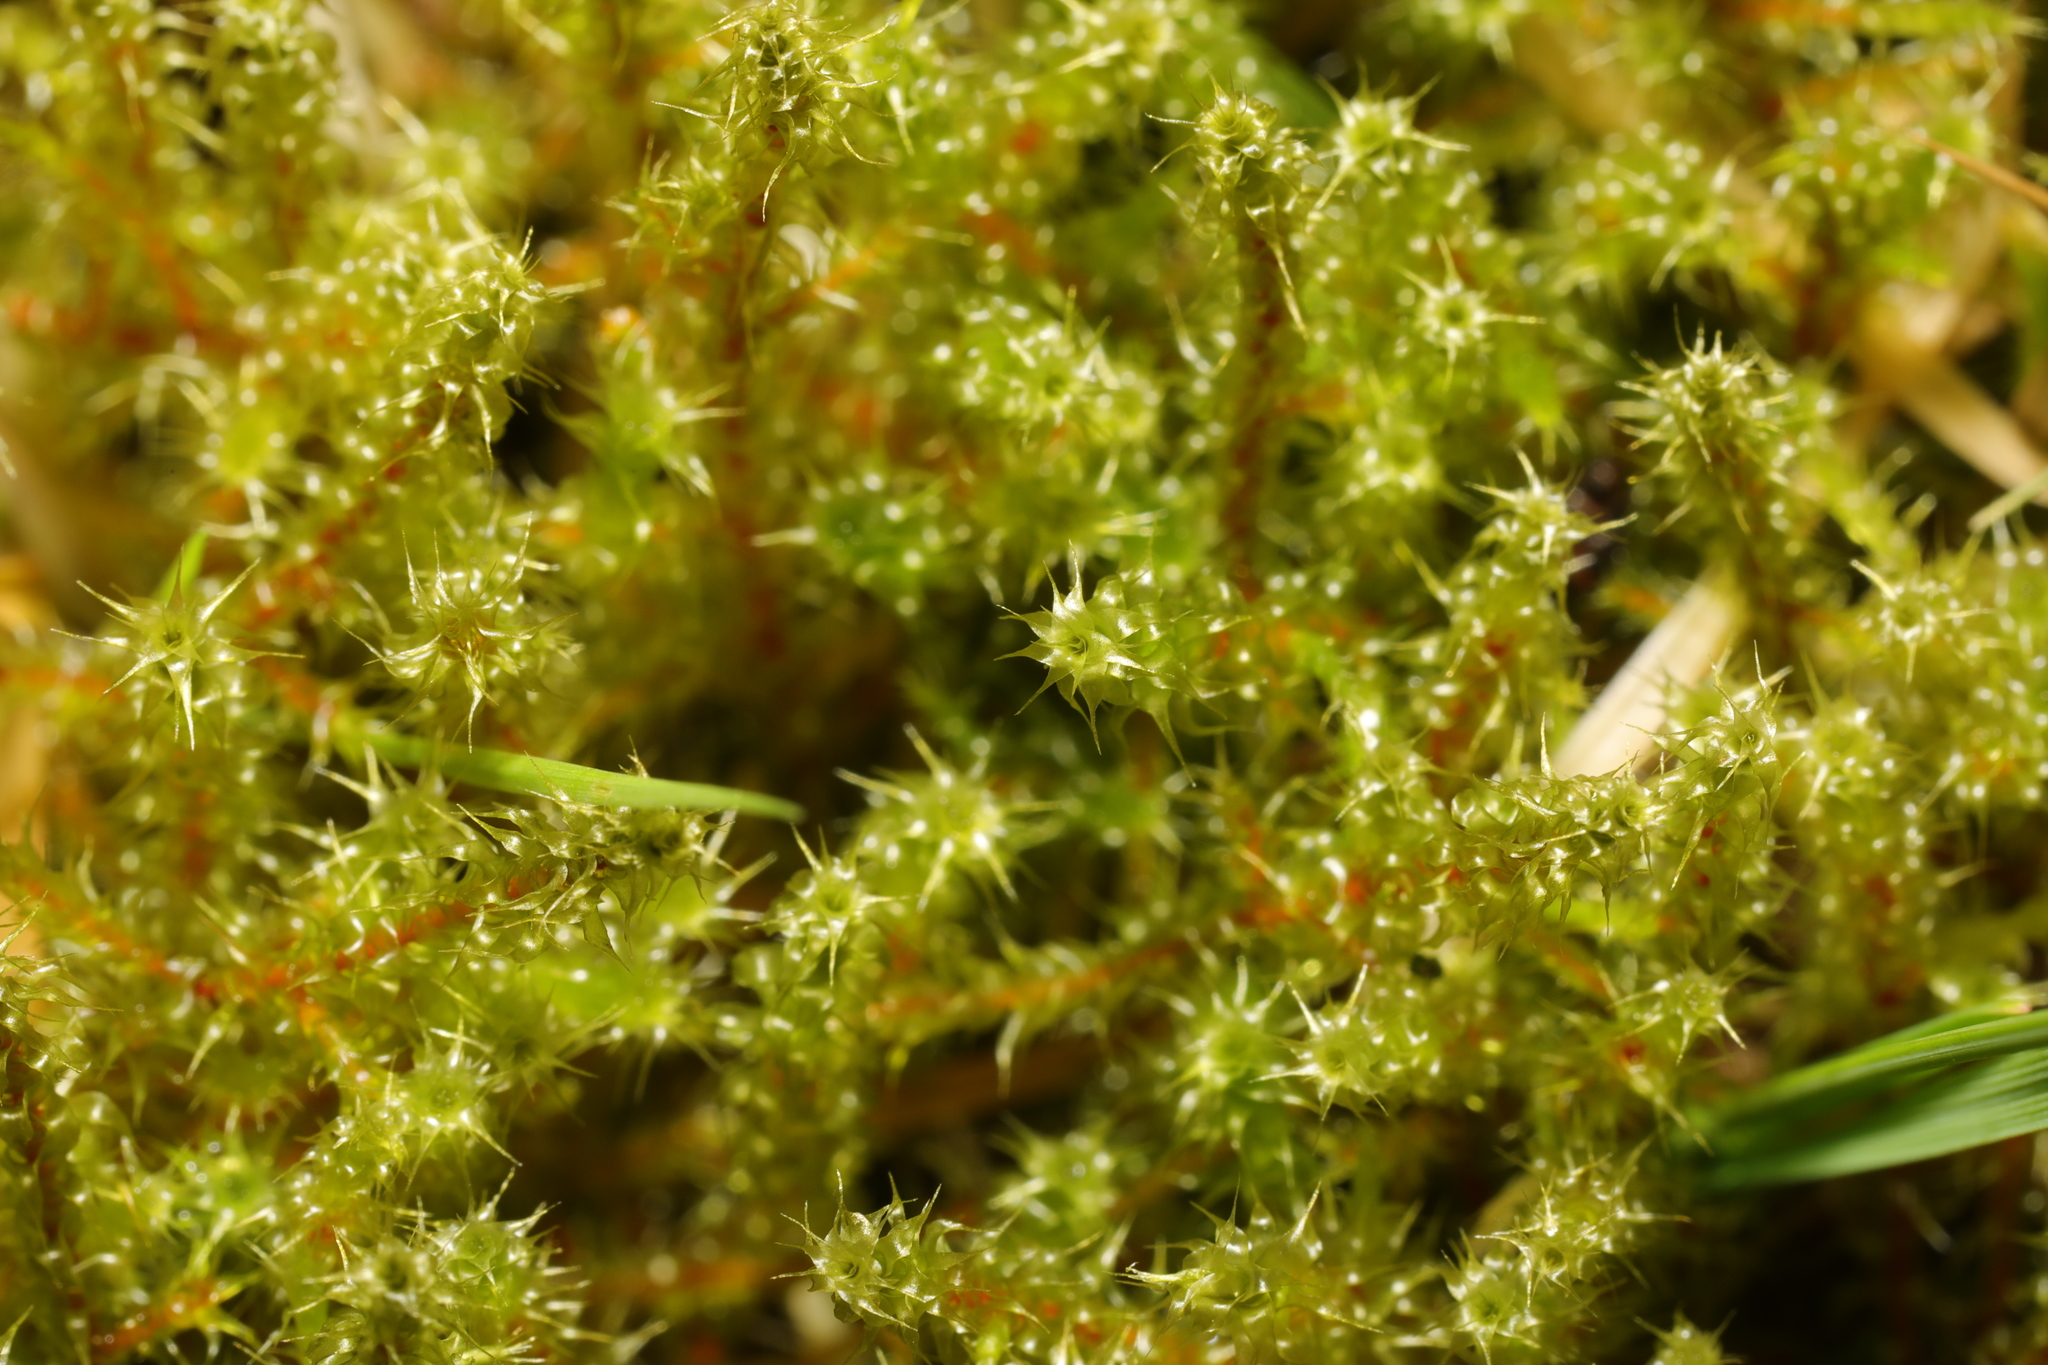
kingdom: Plantae
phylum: Bryophyta
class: Bryopsida
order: Hypnales
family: Hylocomiaceae
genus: Rhytidiadelphus
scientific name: Rhytidiadelphus squarrosus
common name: Springy turf-moss
